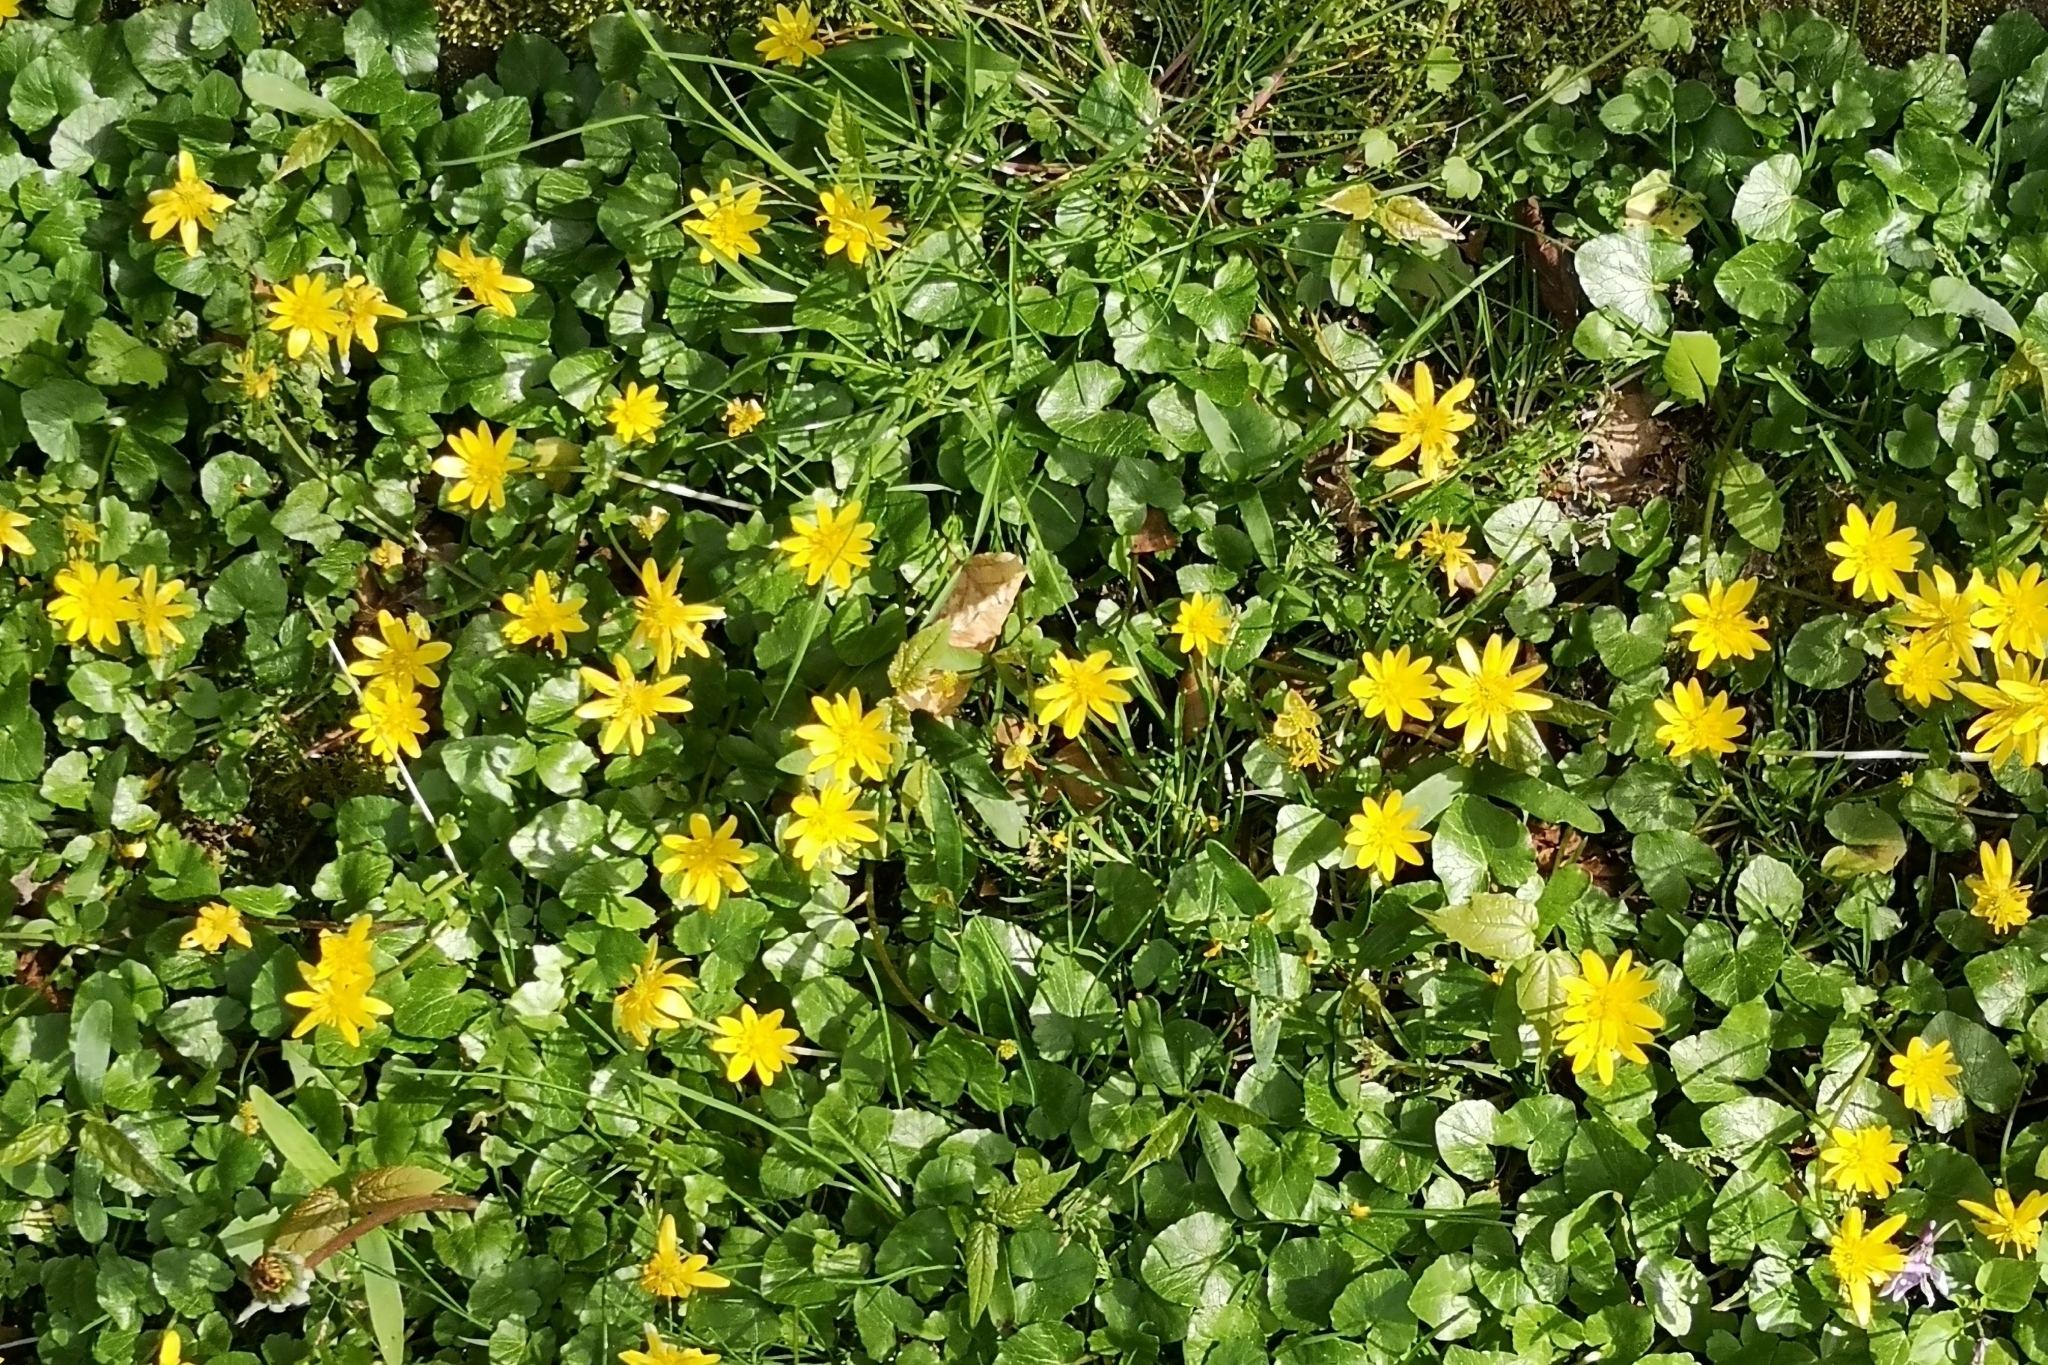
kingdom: Plantae
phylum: Tracheophyta
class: Magnoliopsida
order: Ranunculales
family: Ranunculaceae
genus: Ficaria
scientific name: Ficaria verna
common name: Lesser celandine
